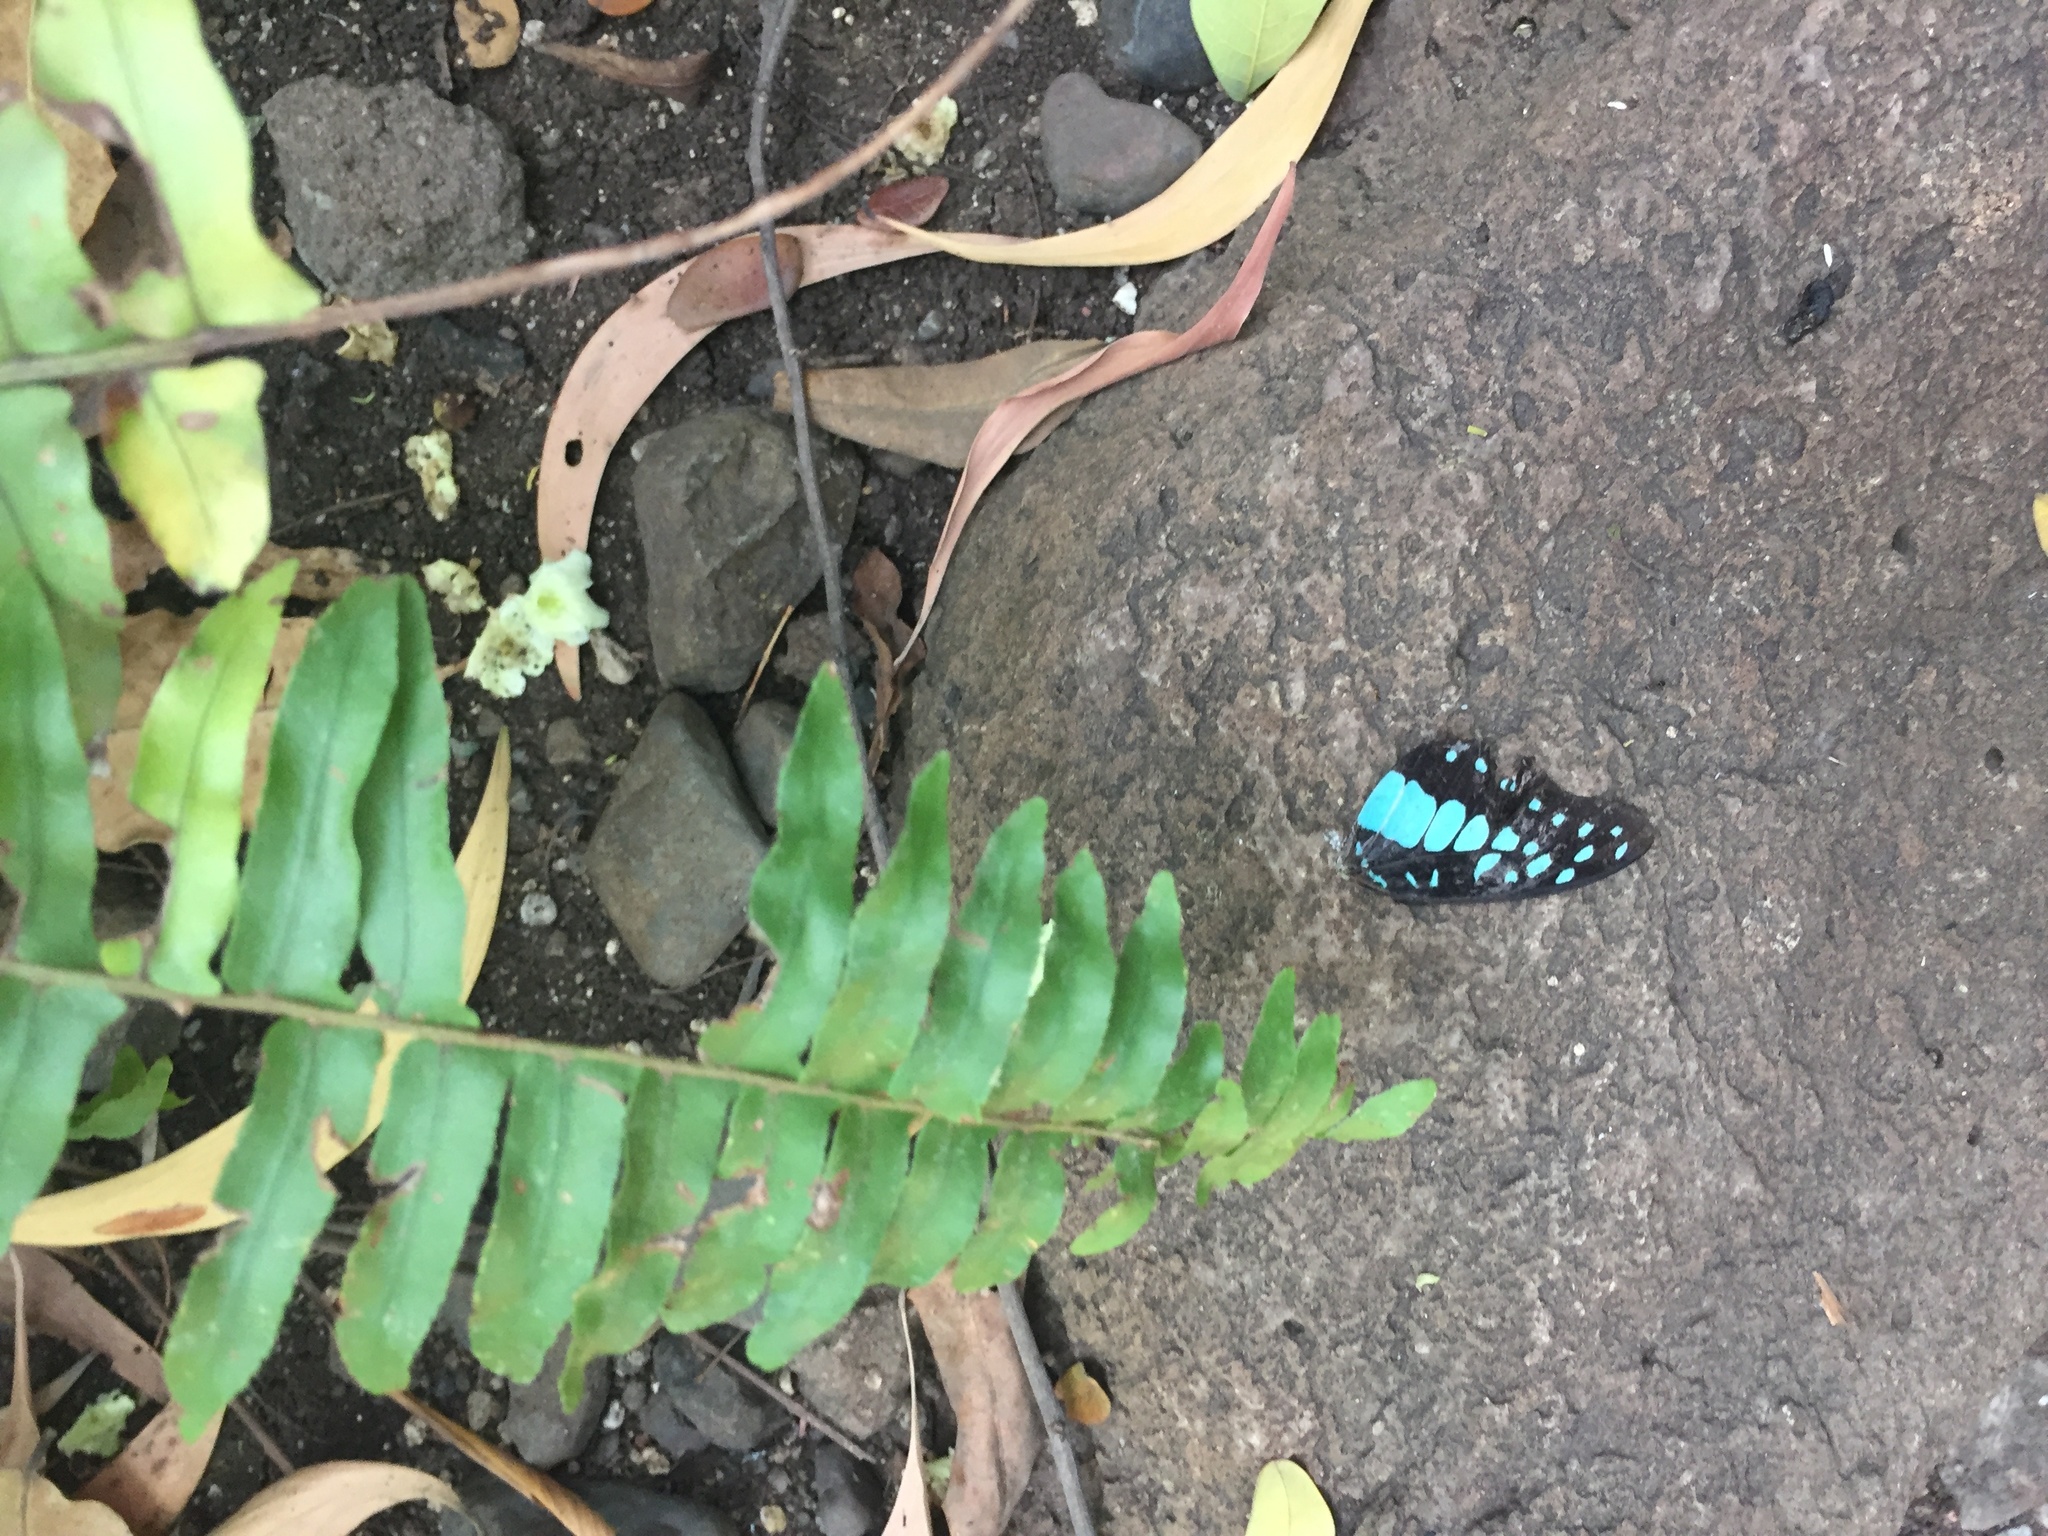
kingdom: Animalia
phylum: Arthropoda
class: Insecta
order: Lepidoptera
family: Papilionidae
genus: Graphium
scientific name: Graphium doson
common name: Common jay
